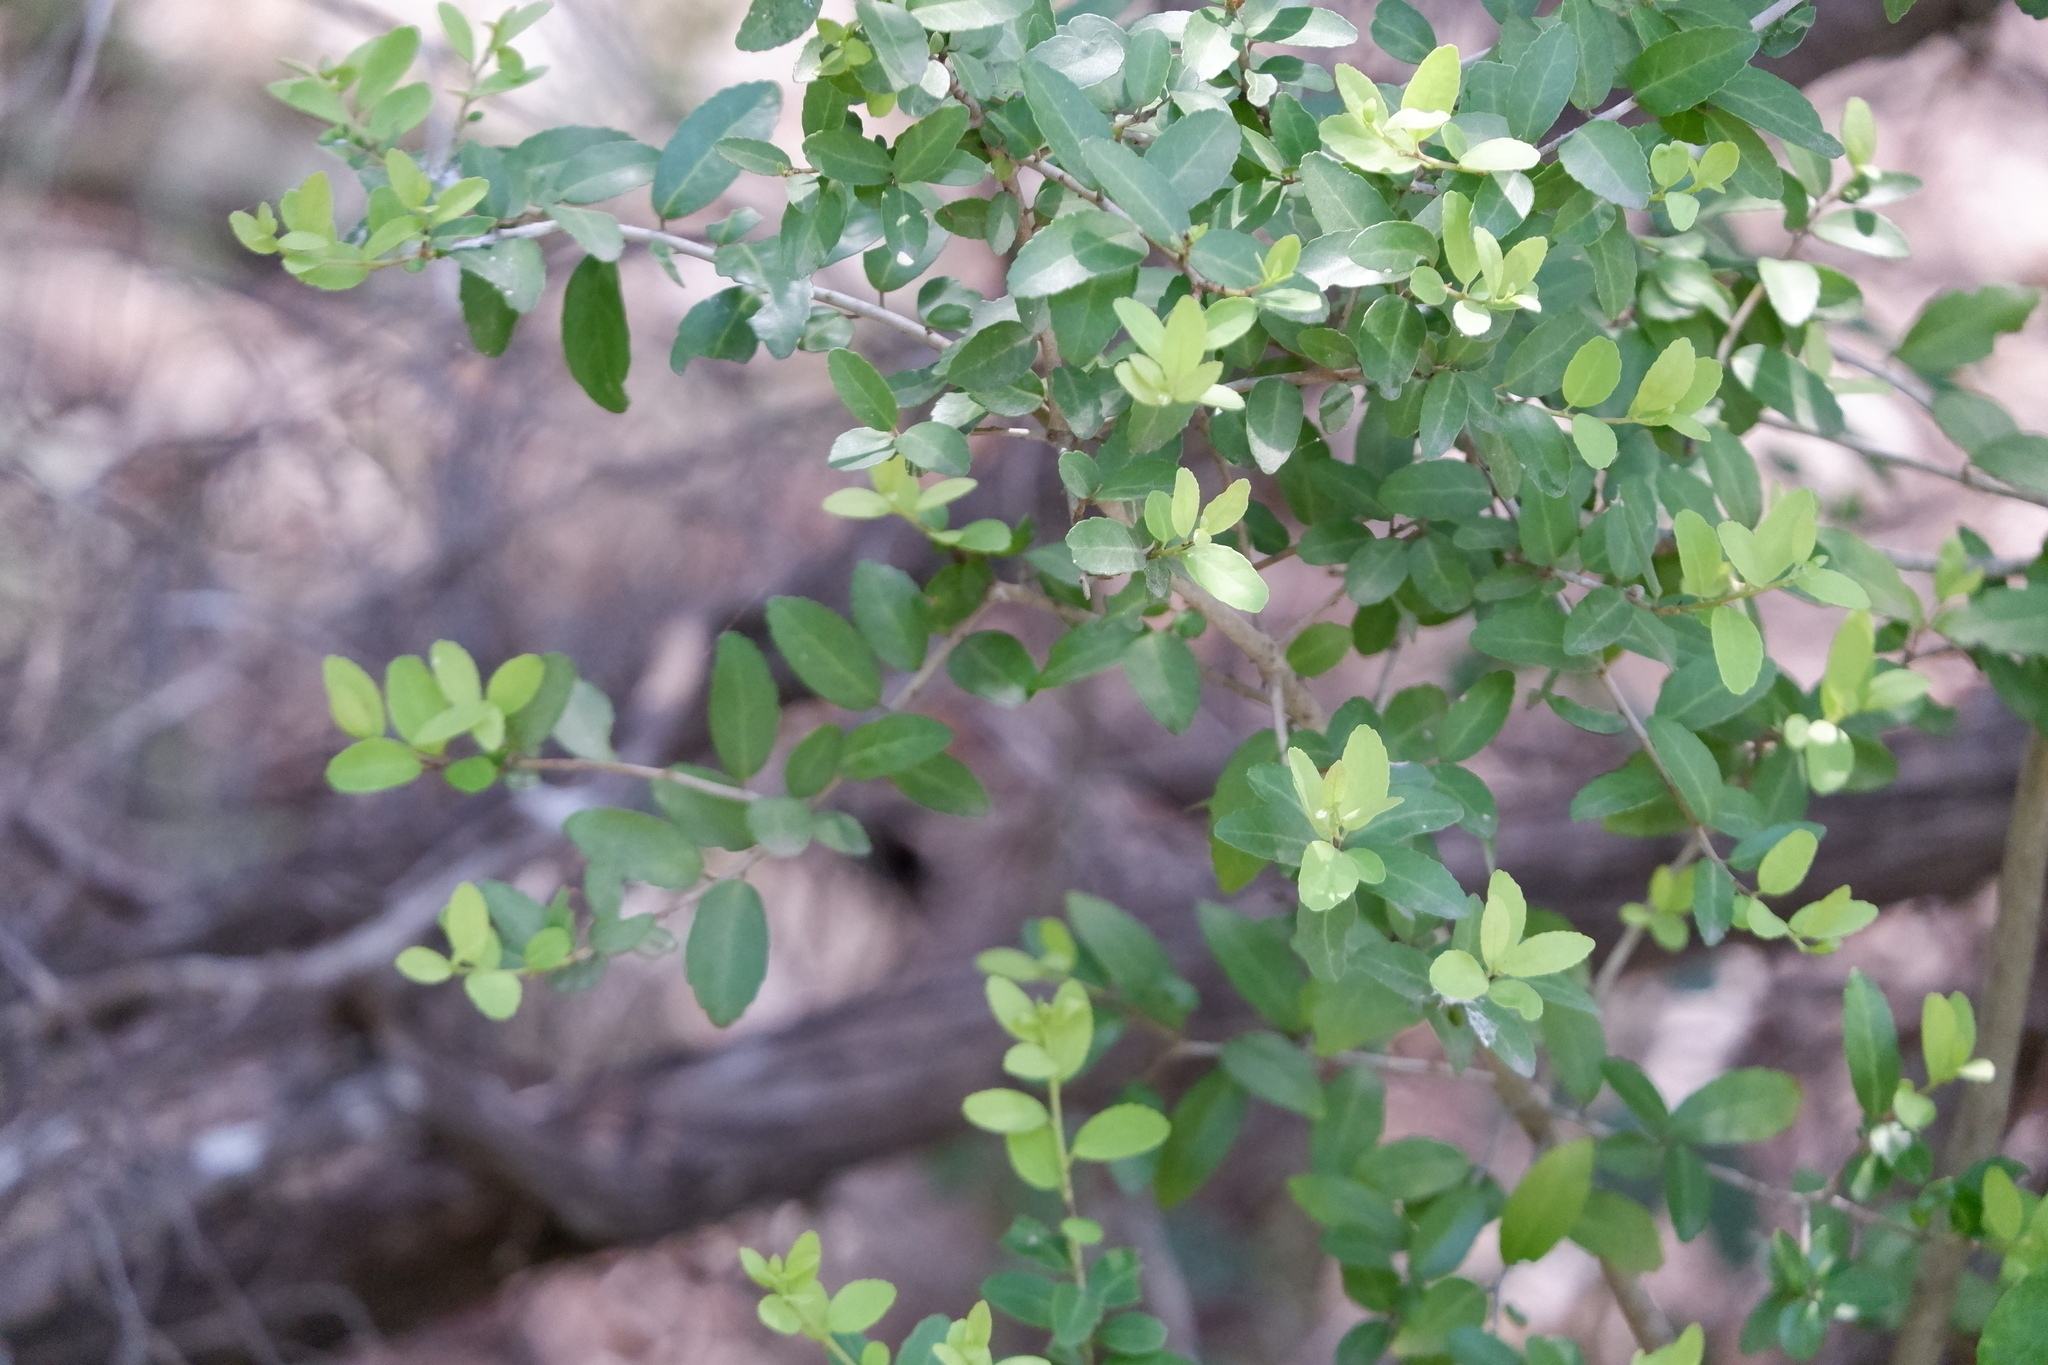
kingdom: Plantae
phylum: Tracheophyta
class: Magnoliopsida
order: Aquifoliales
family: Aquifoliaceae
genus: Ilex
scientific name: Ilex vomitoria
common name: Yaupon holly
